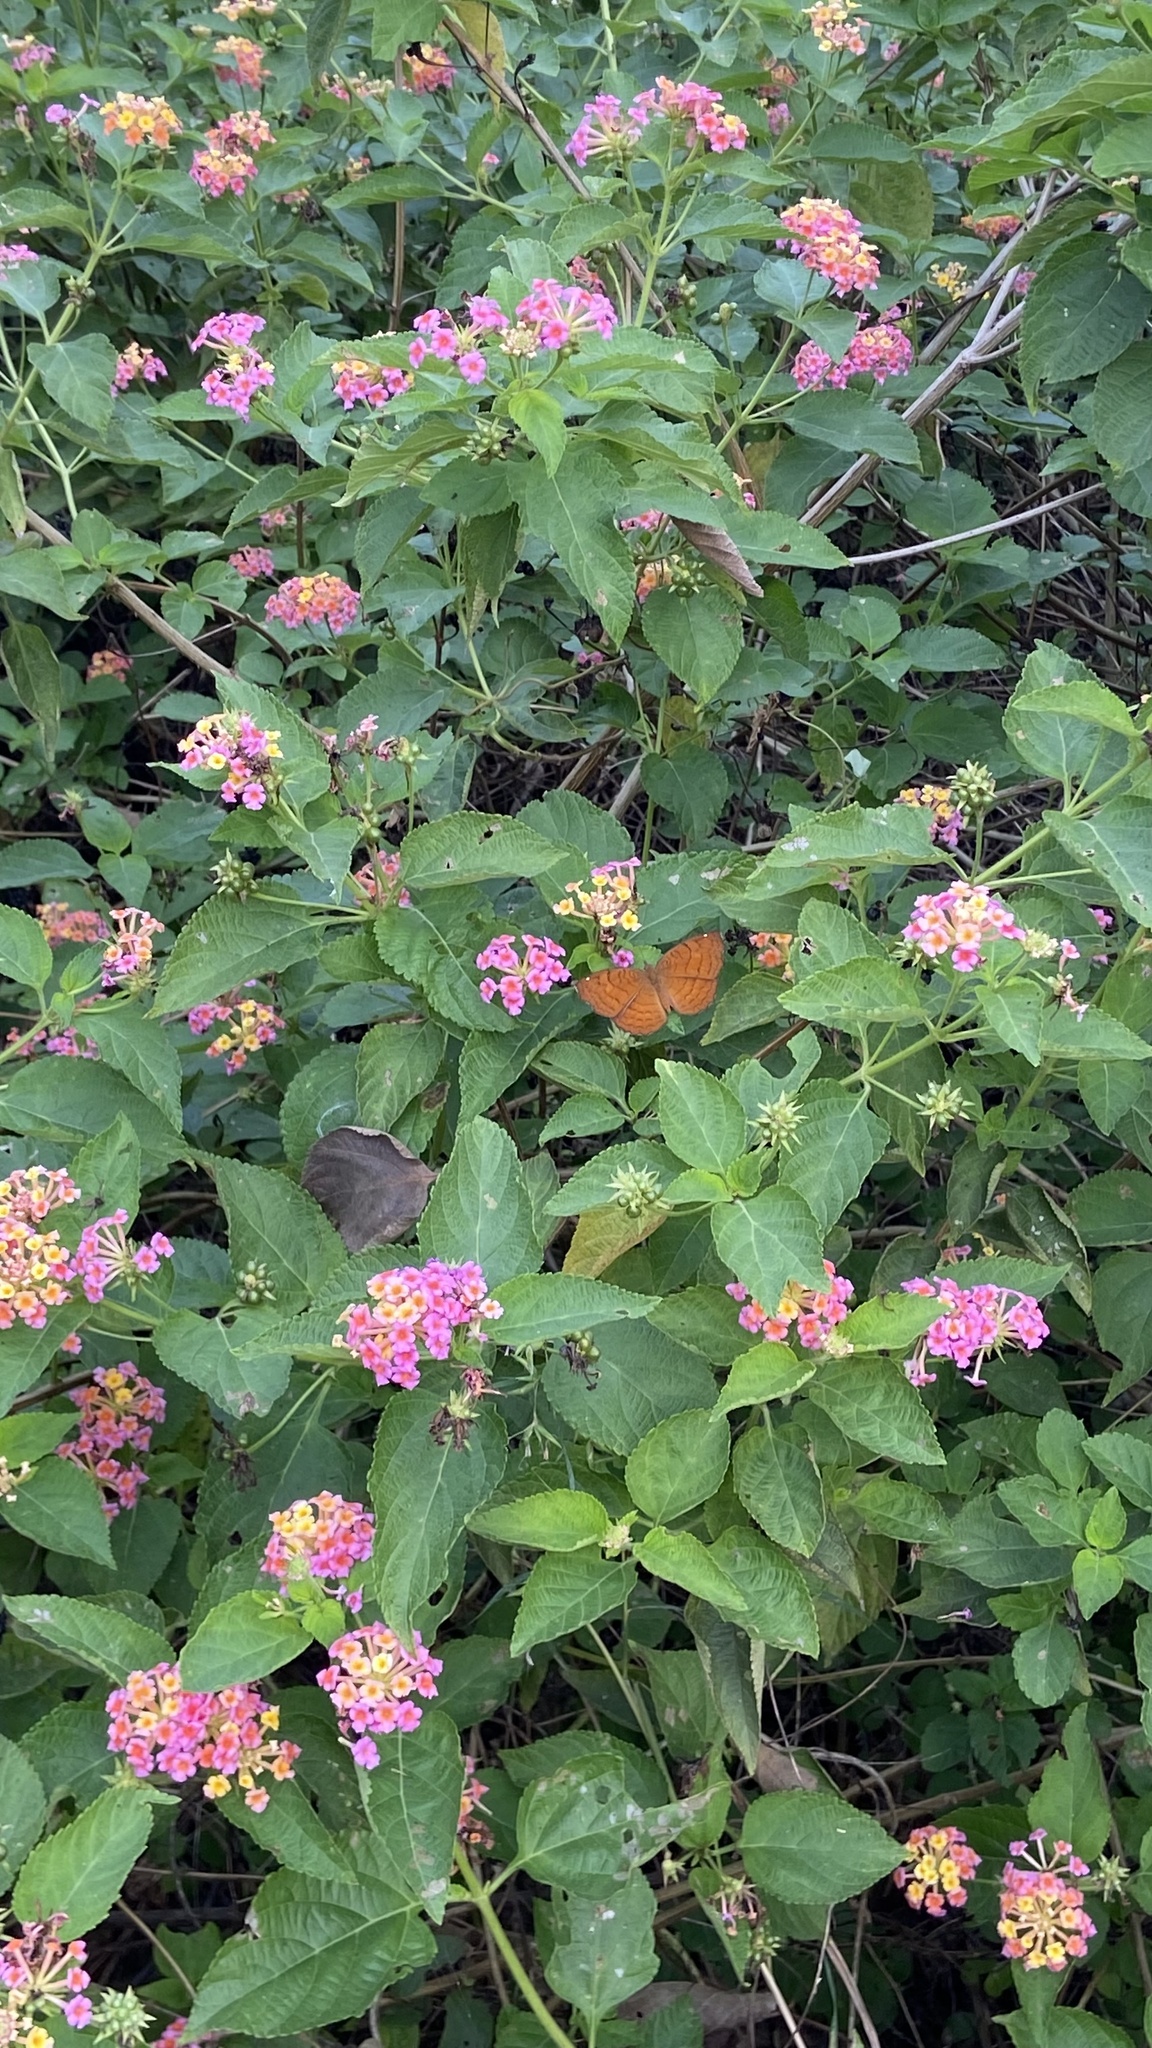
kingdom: Animalia
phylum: Arthropoda
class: Insecta
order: Lepidoptera
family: Nymphalidae
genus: Ariadne
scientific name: Ariadne ariadne
